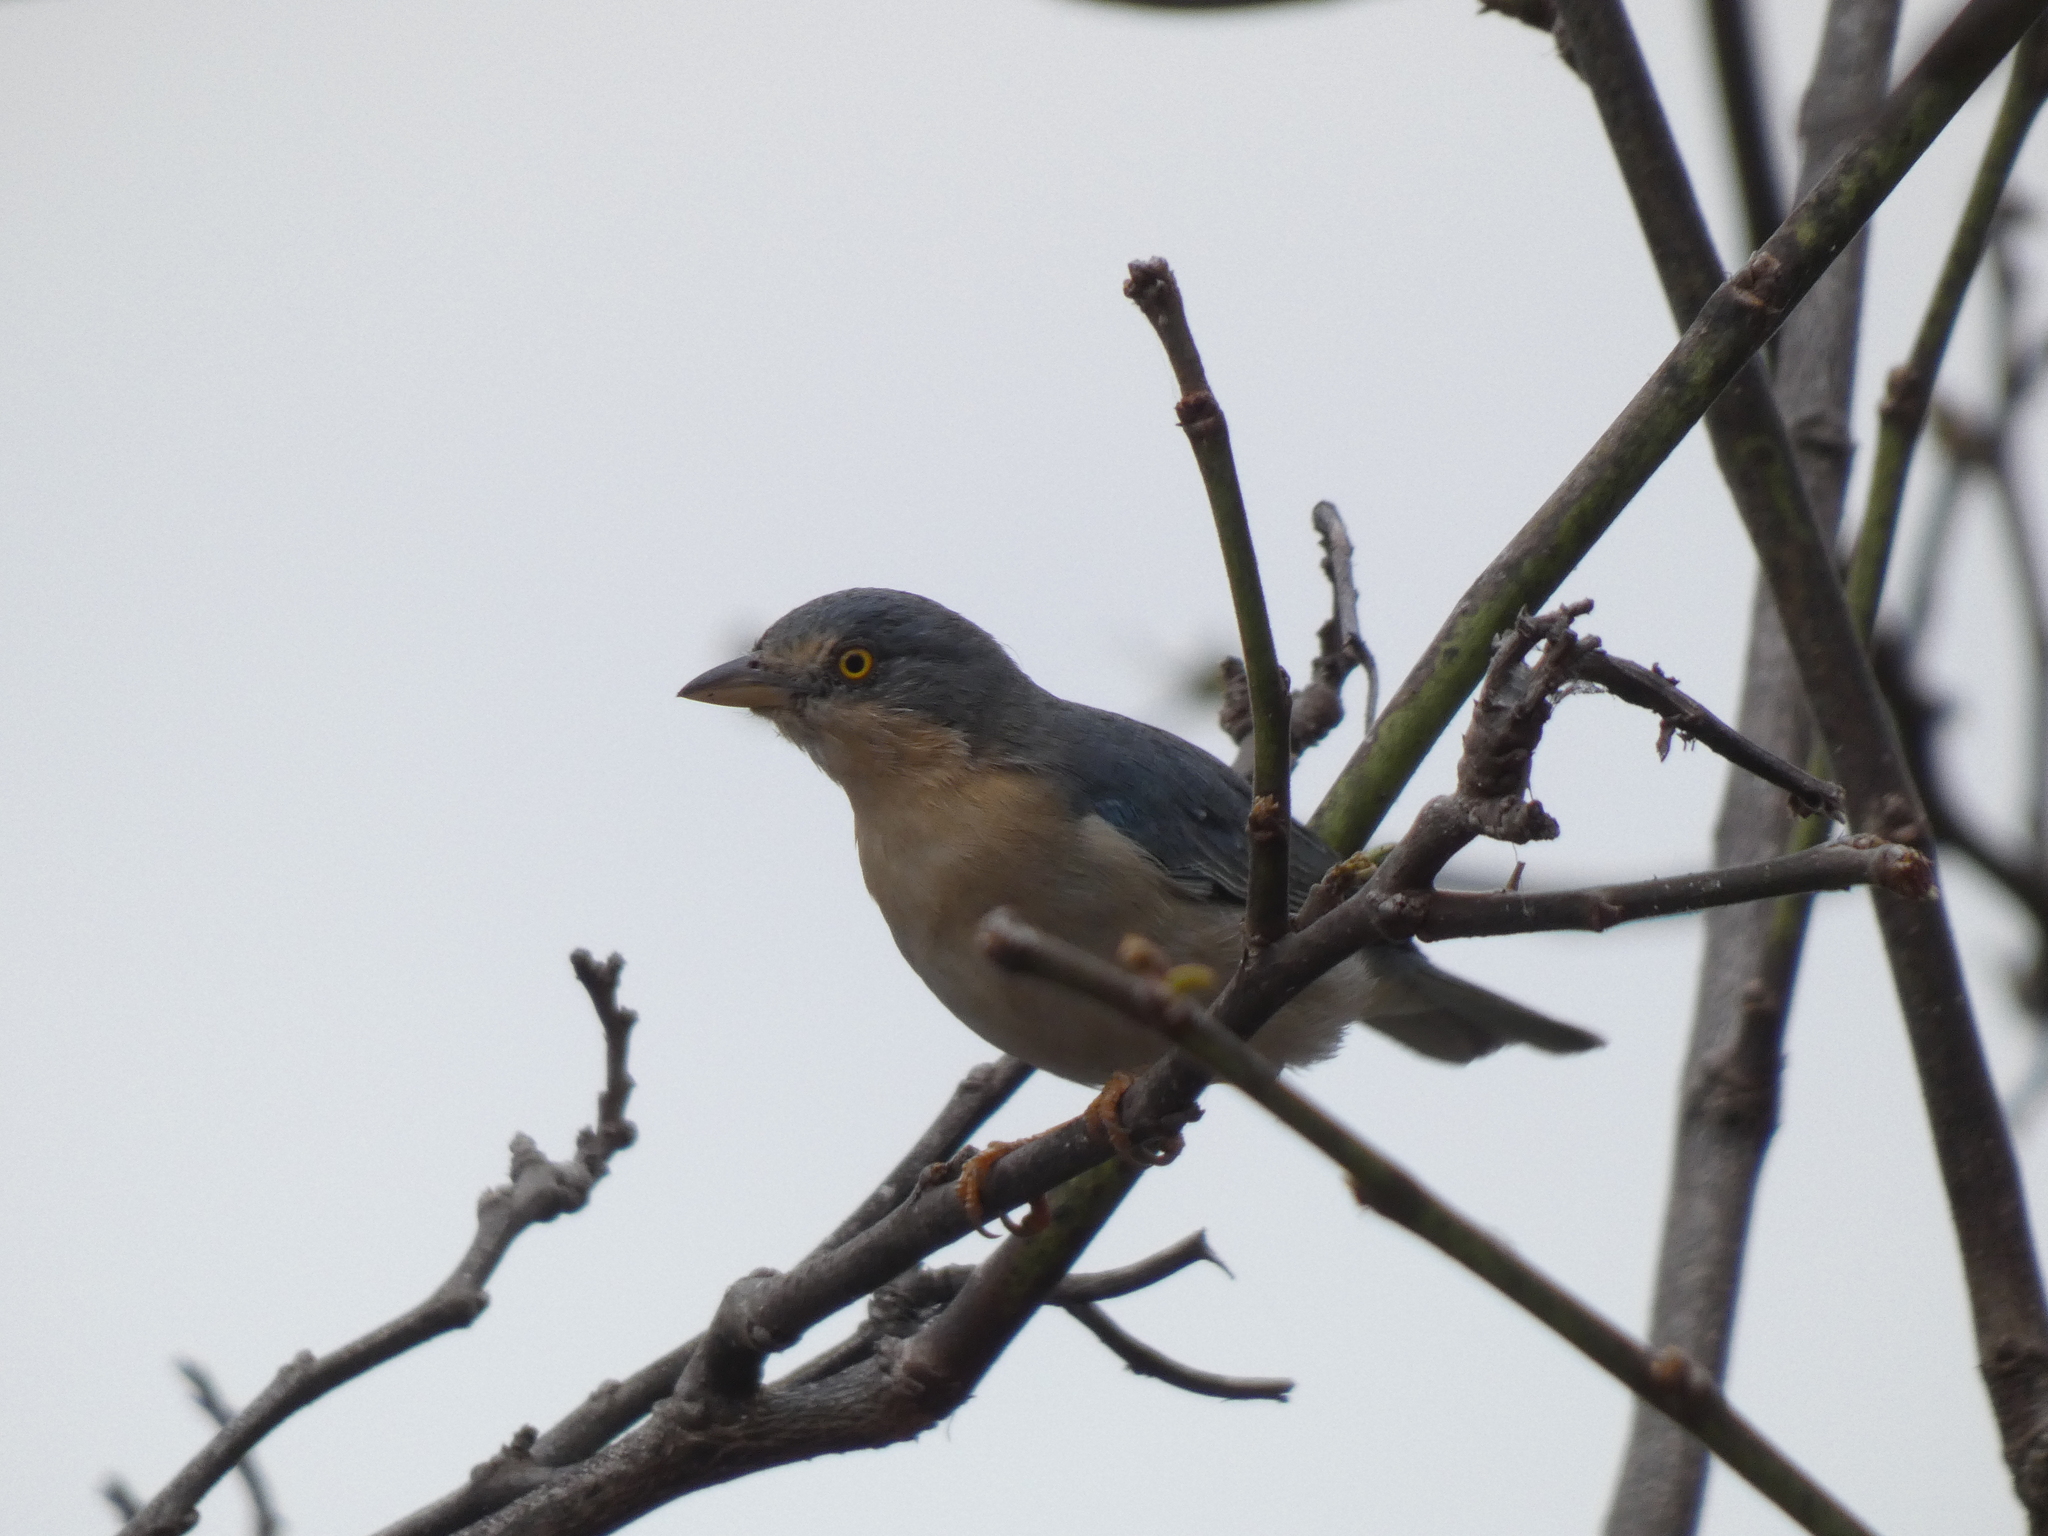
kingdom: Animalia
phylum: Chordata
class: Aves
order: Passeriformes
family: Thraupidae
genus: Nemosia
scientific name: Nemosia pileata
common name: Hooded tanager
